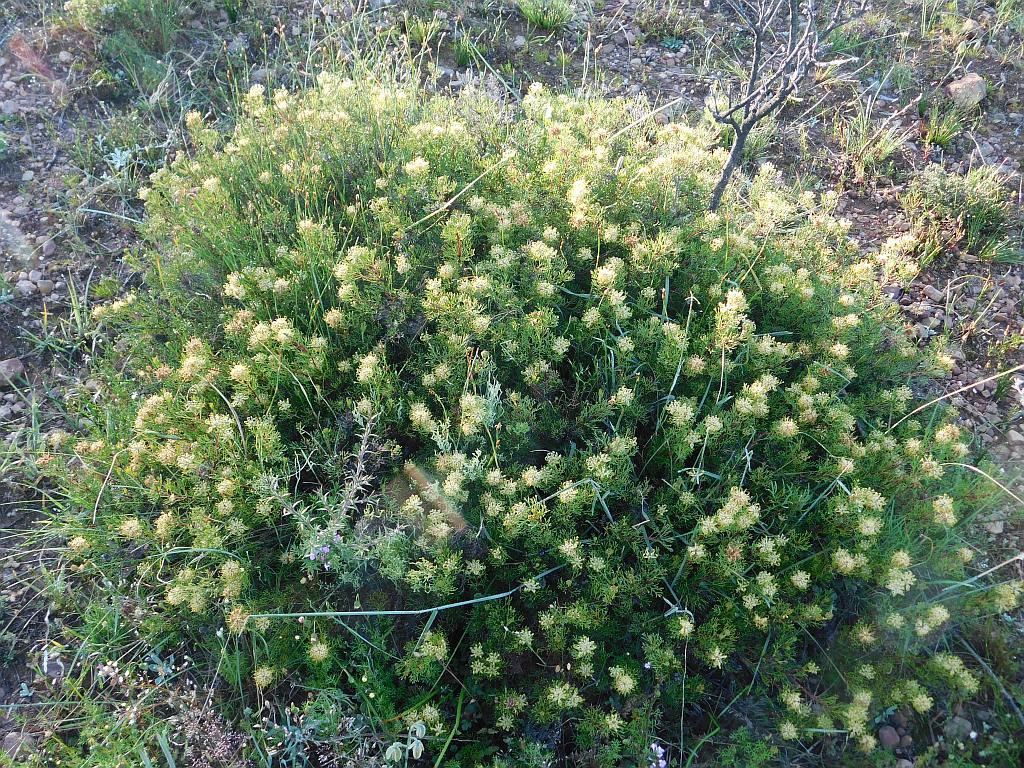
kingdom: Plantae
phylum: Tracheophyta
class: Magnoliopsida
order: Proteales
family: Proteaceae
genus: Serruria
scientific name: Serruria
